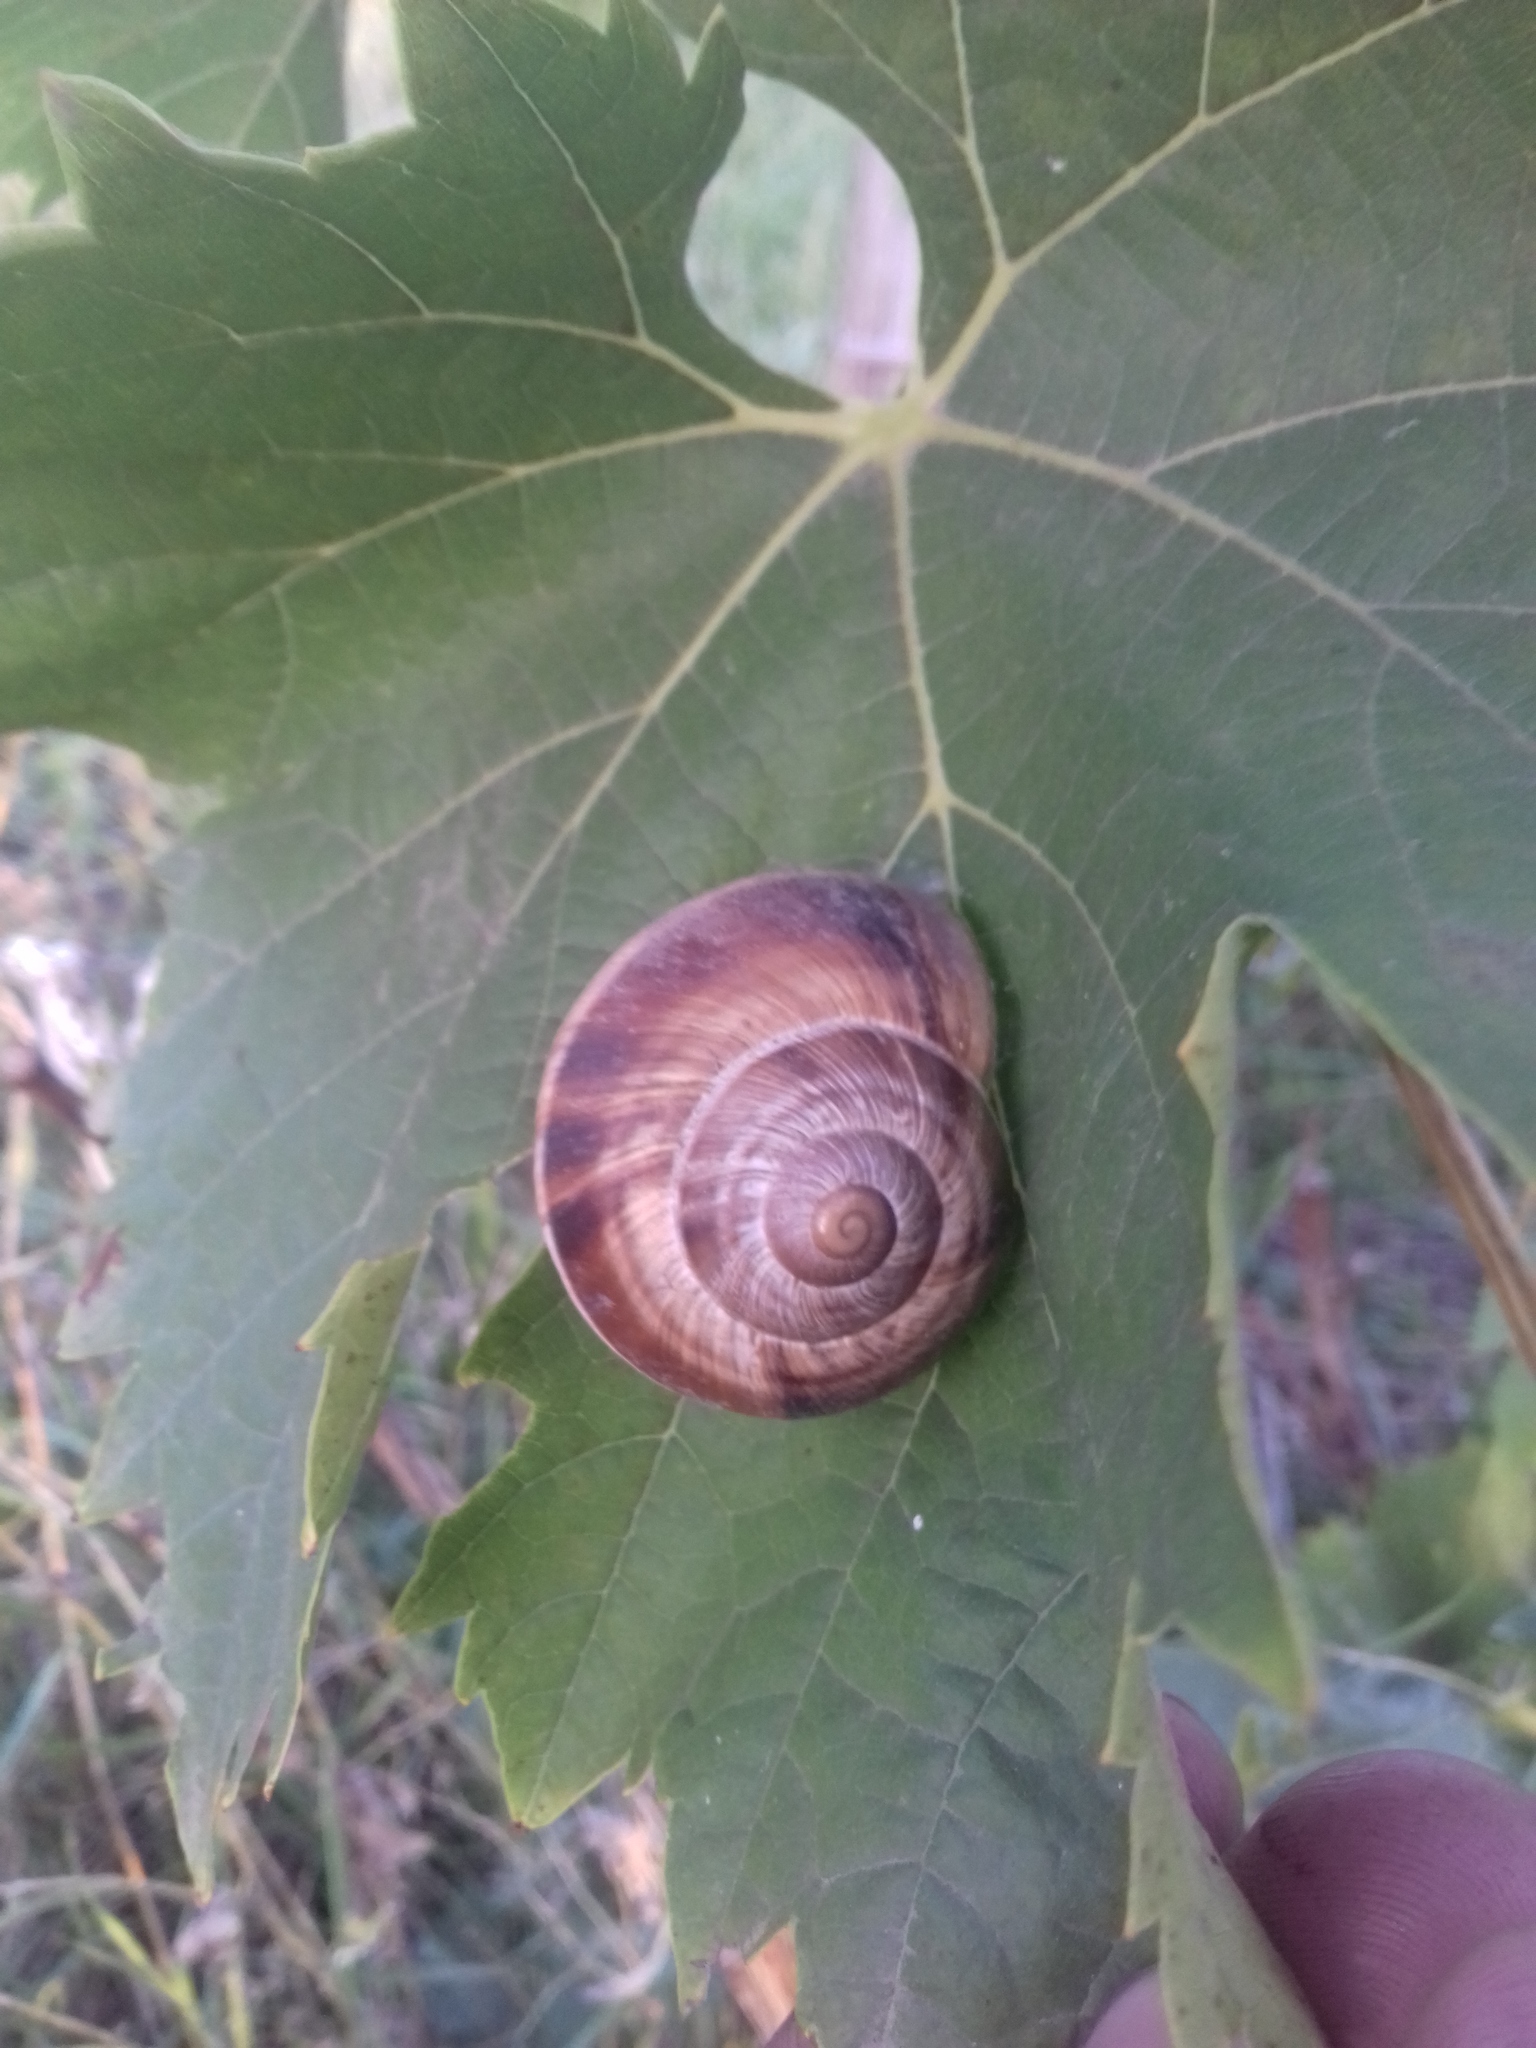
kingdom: Animalia
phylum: Mollusca
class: Gastropoda
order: Stylommatophora
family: Helicidae
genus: Helix
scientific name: Helix lucorum
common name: Turkish snail
